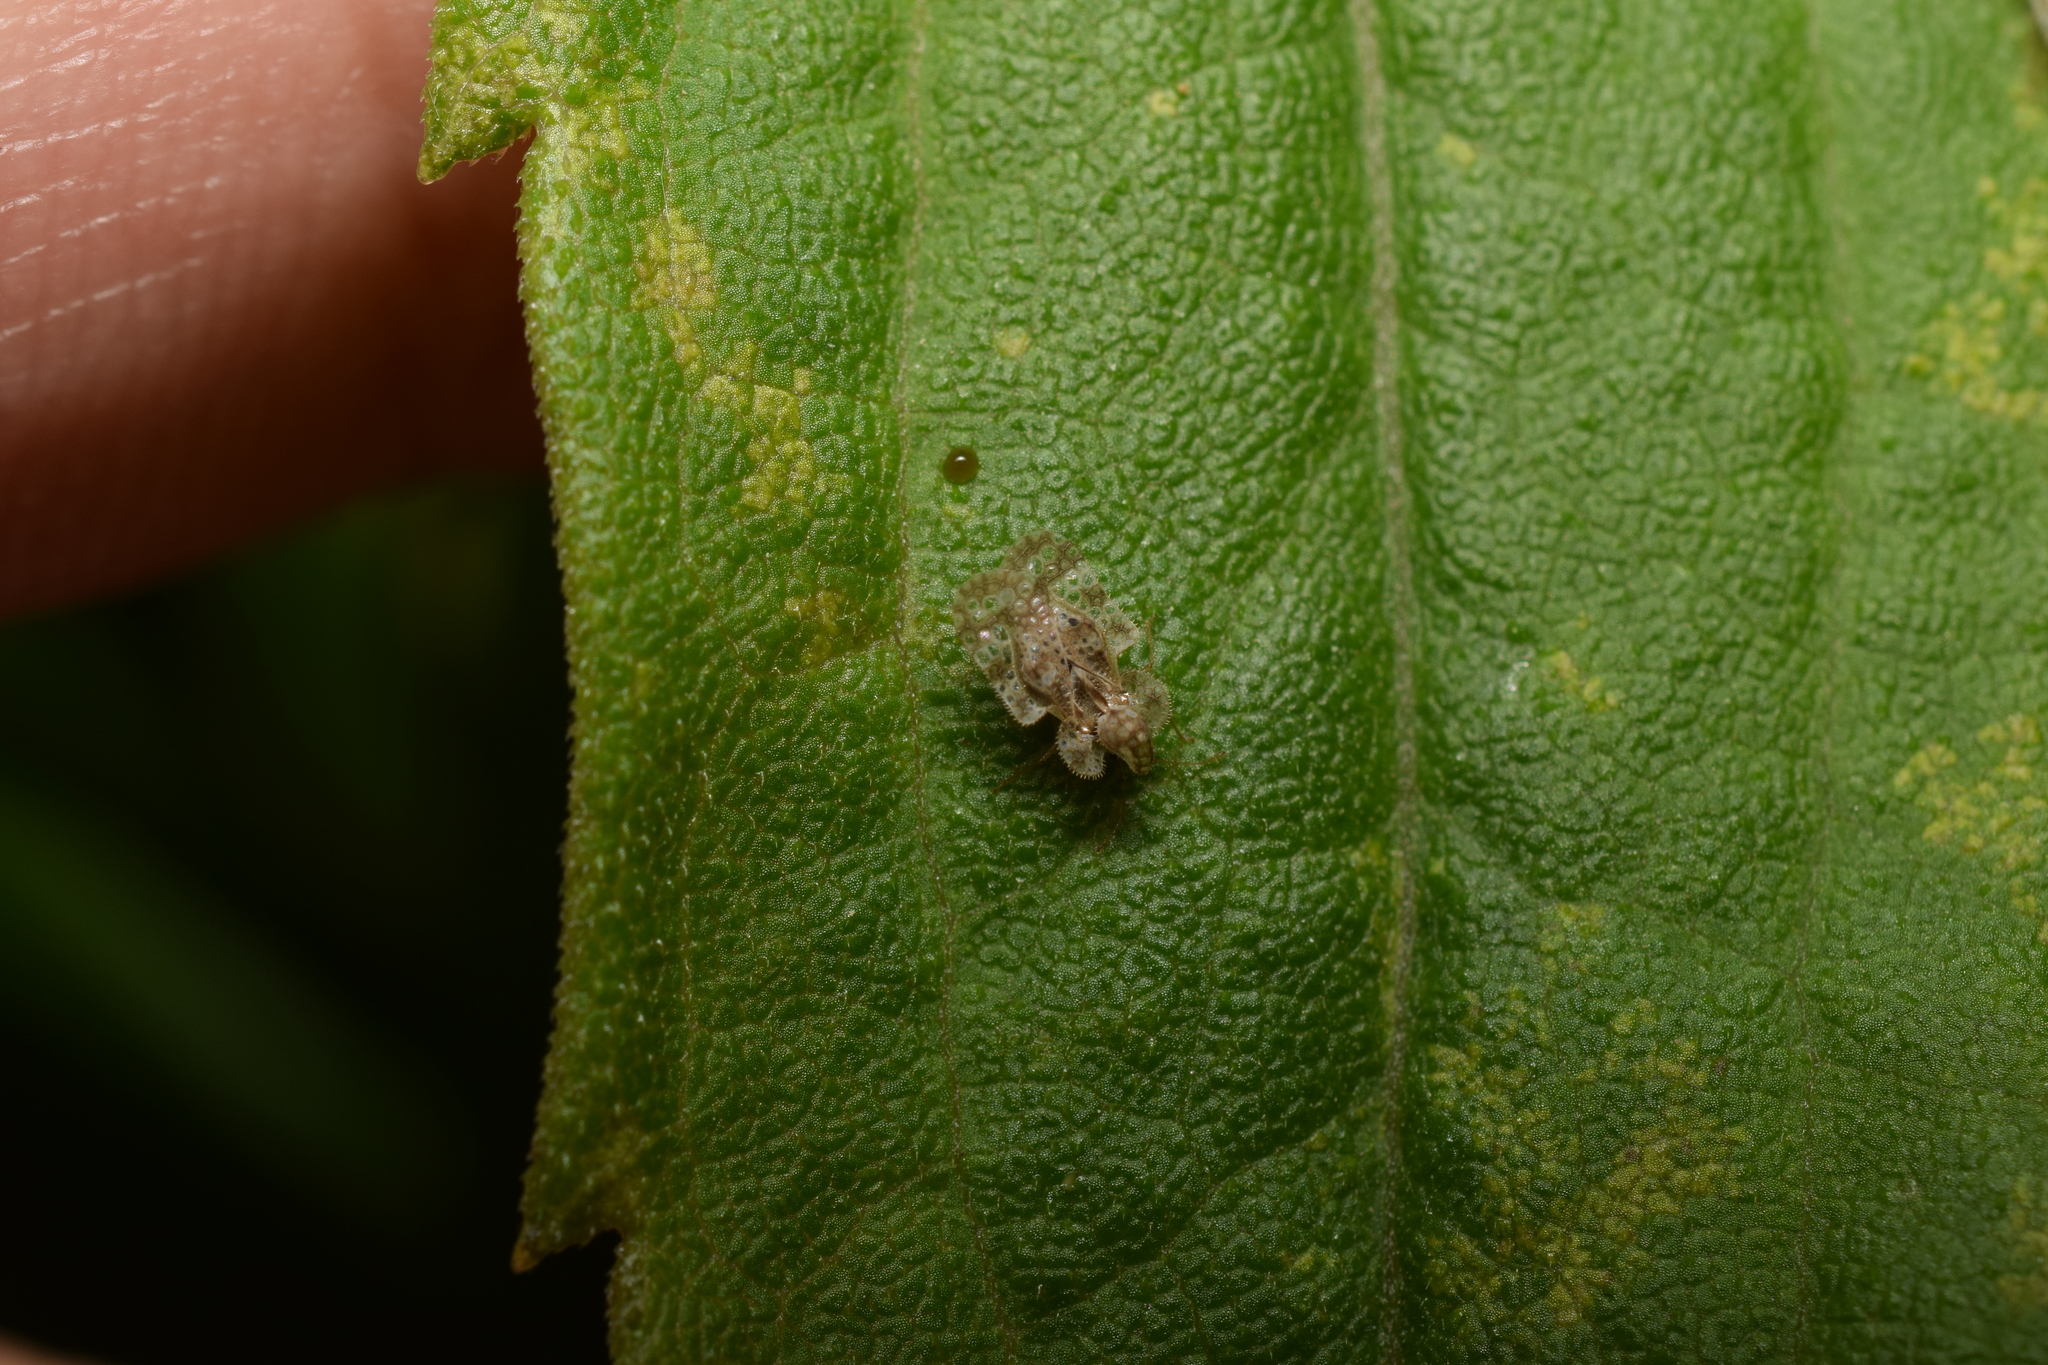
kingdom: Animalia
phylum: Arthropoda
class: Insecta
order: Hemiptera
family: Tingidae
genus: Corythucha
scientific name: Corythucha marmorata
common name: Chrysanthemum lace bug
